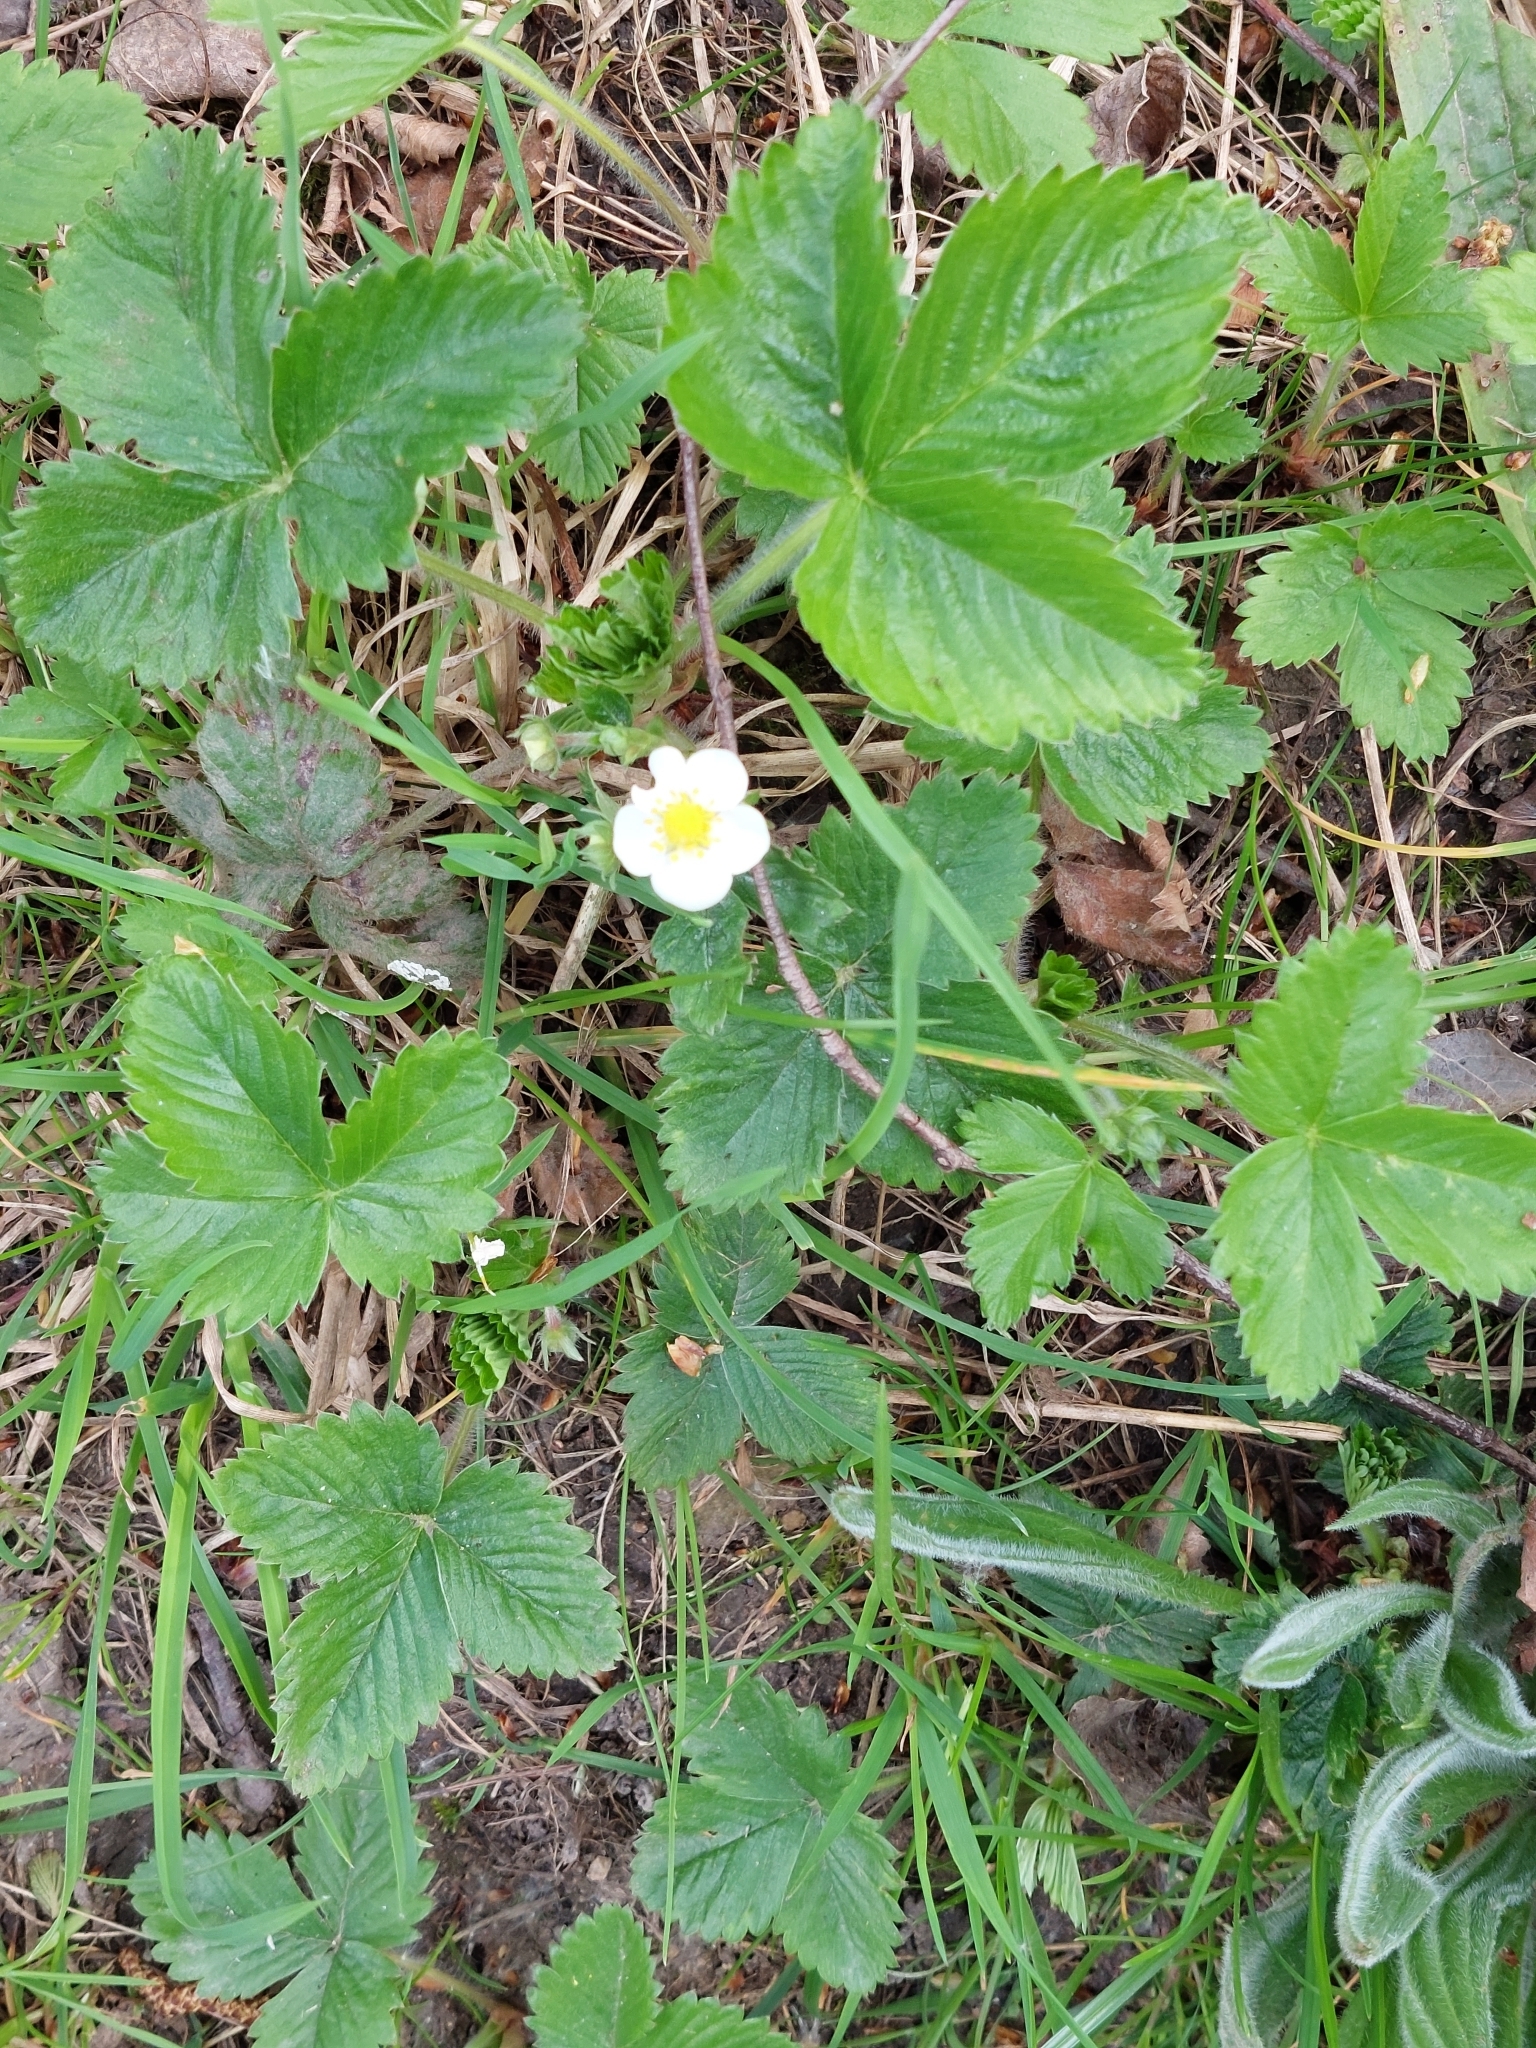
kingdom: Plantae
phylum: Tracheophyta
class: Magnoliopsida
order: Rosales
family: Rosaceae
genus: Fragaria
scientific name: Fragaria vesca
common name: Wild strawberry
